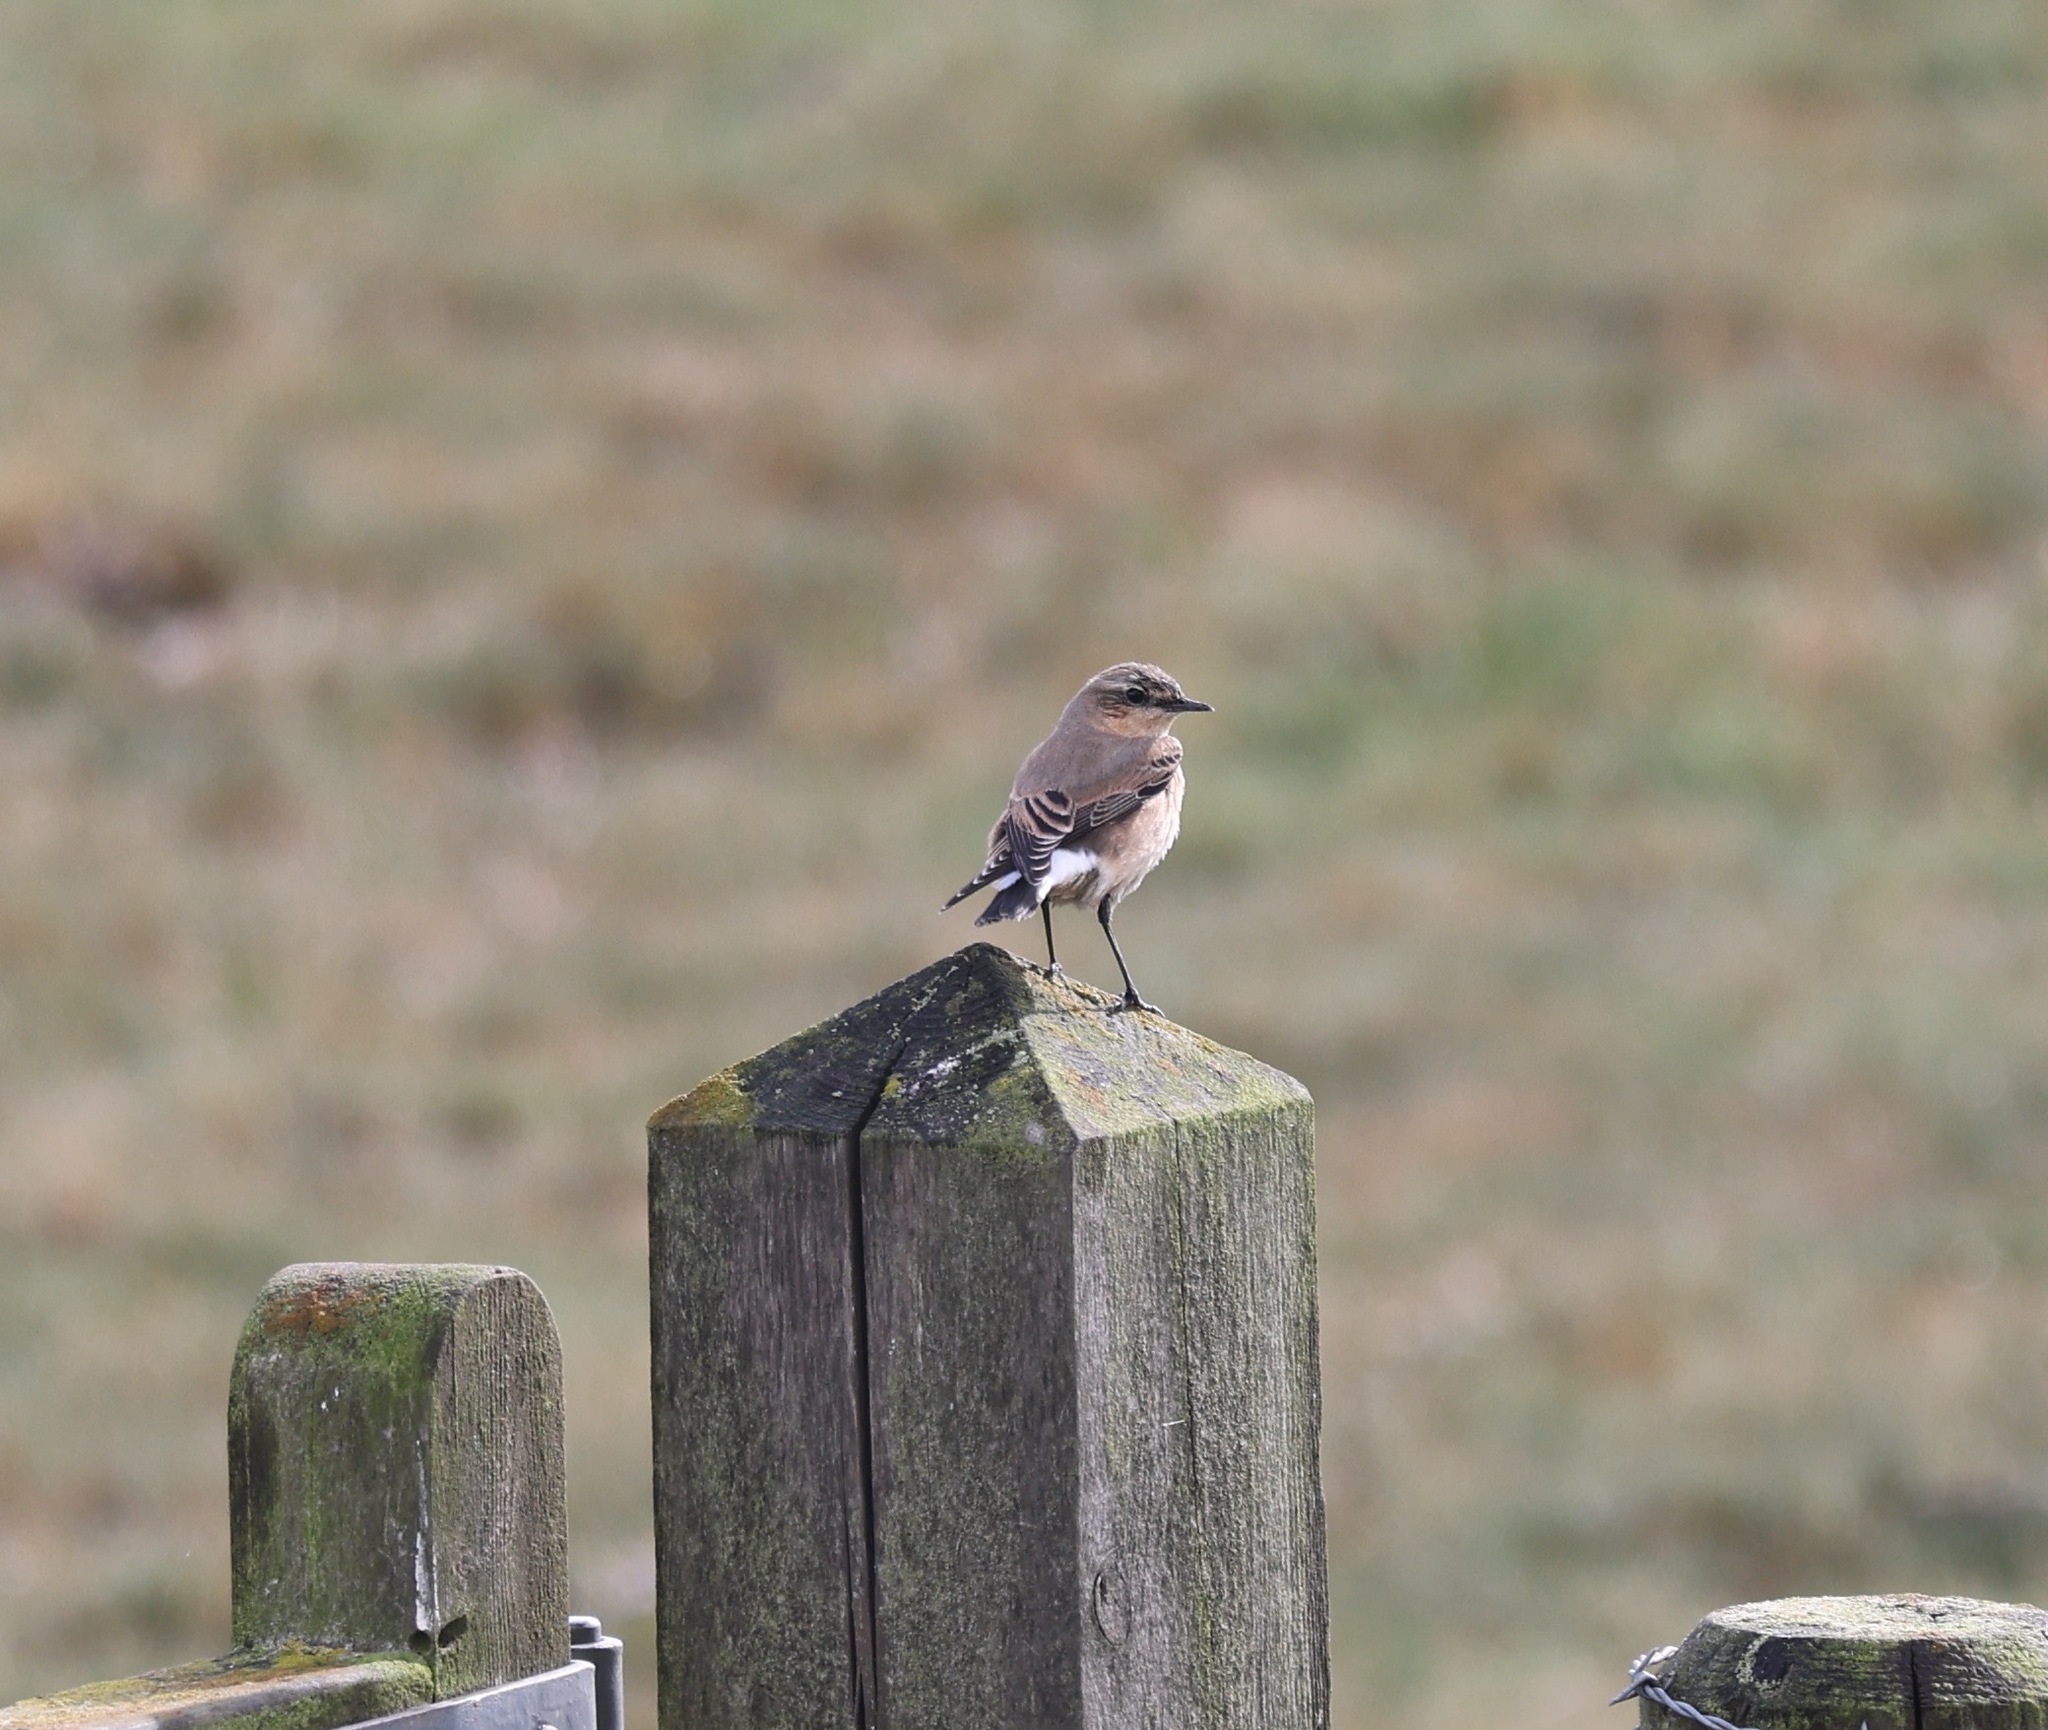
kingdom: Animalia
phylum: Chordata
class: Aves
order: Passeriformes
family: Muscicapidae
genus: Oenanthe
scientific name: Oenanthe oenanthe
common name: Northern wheatear
